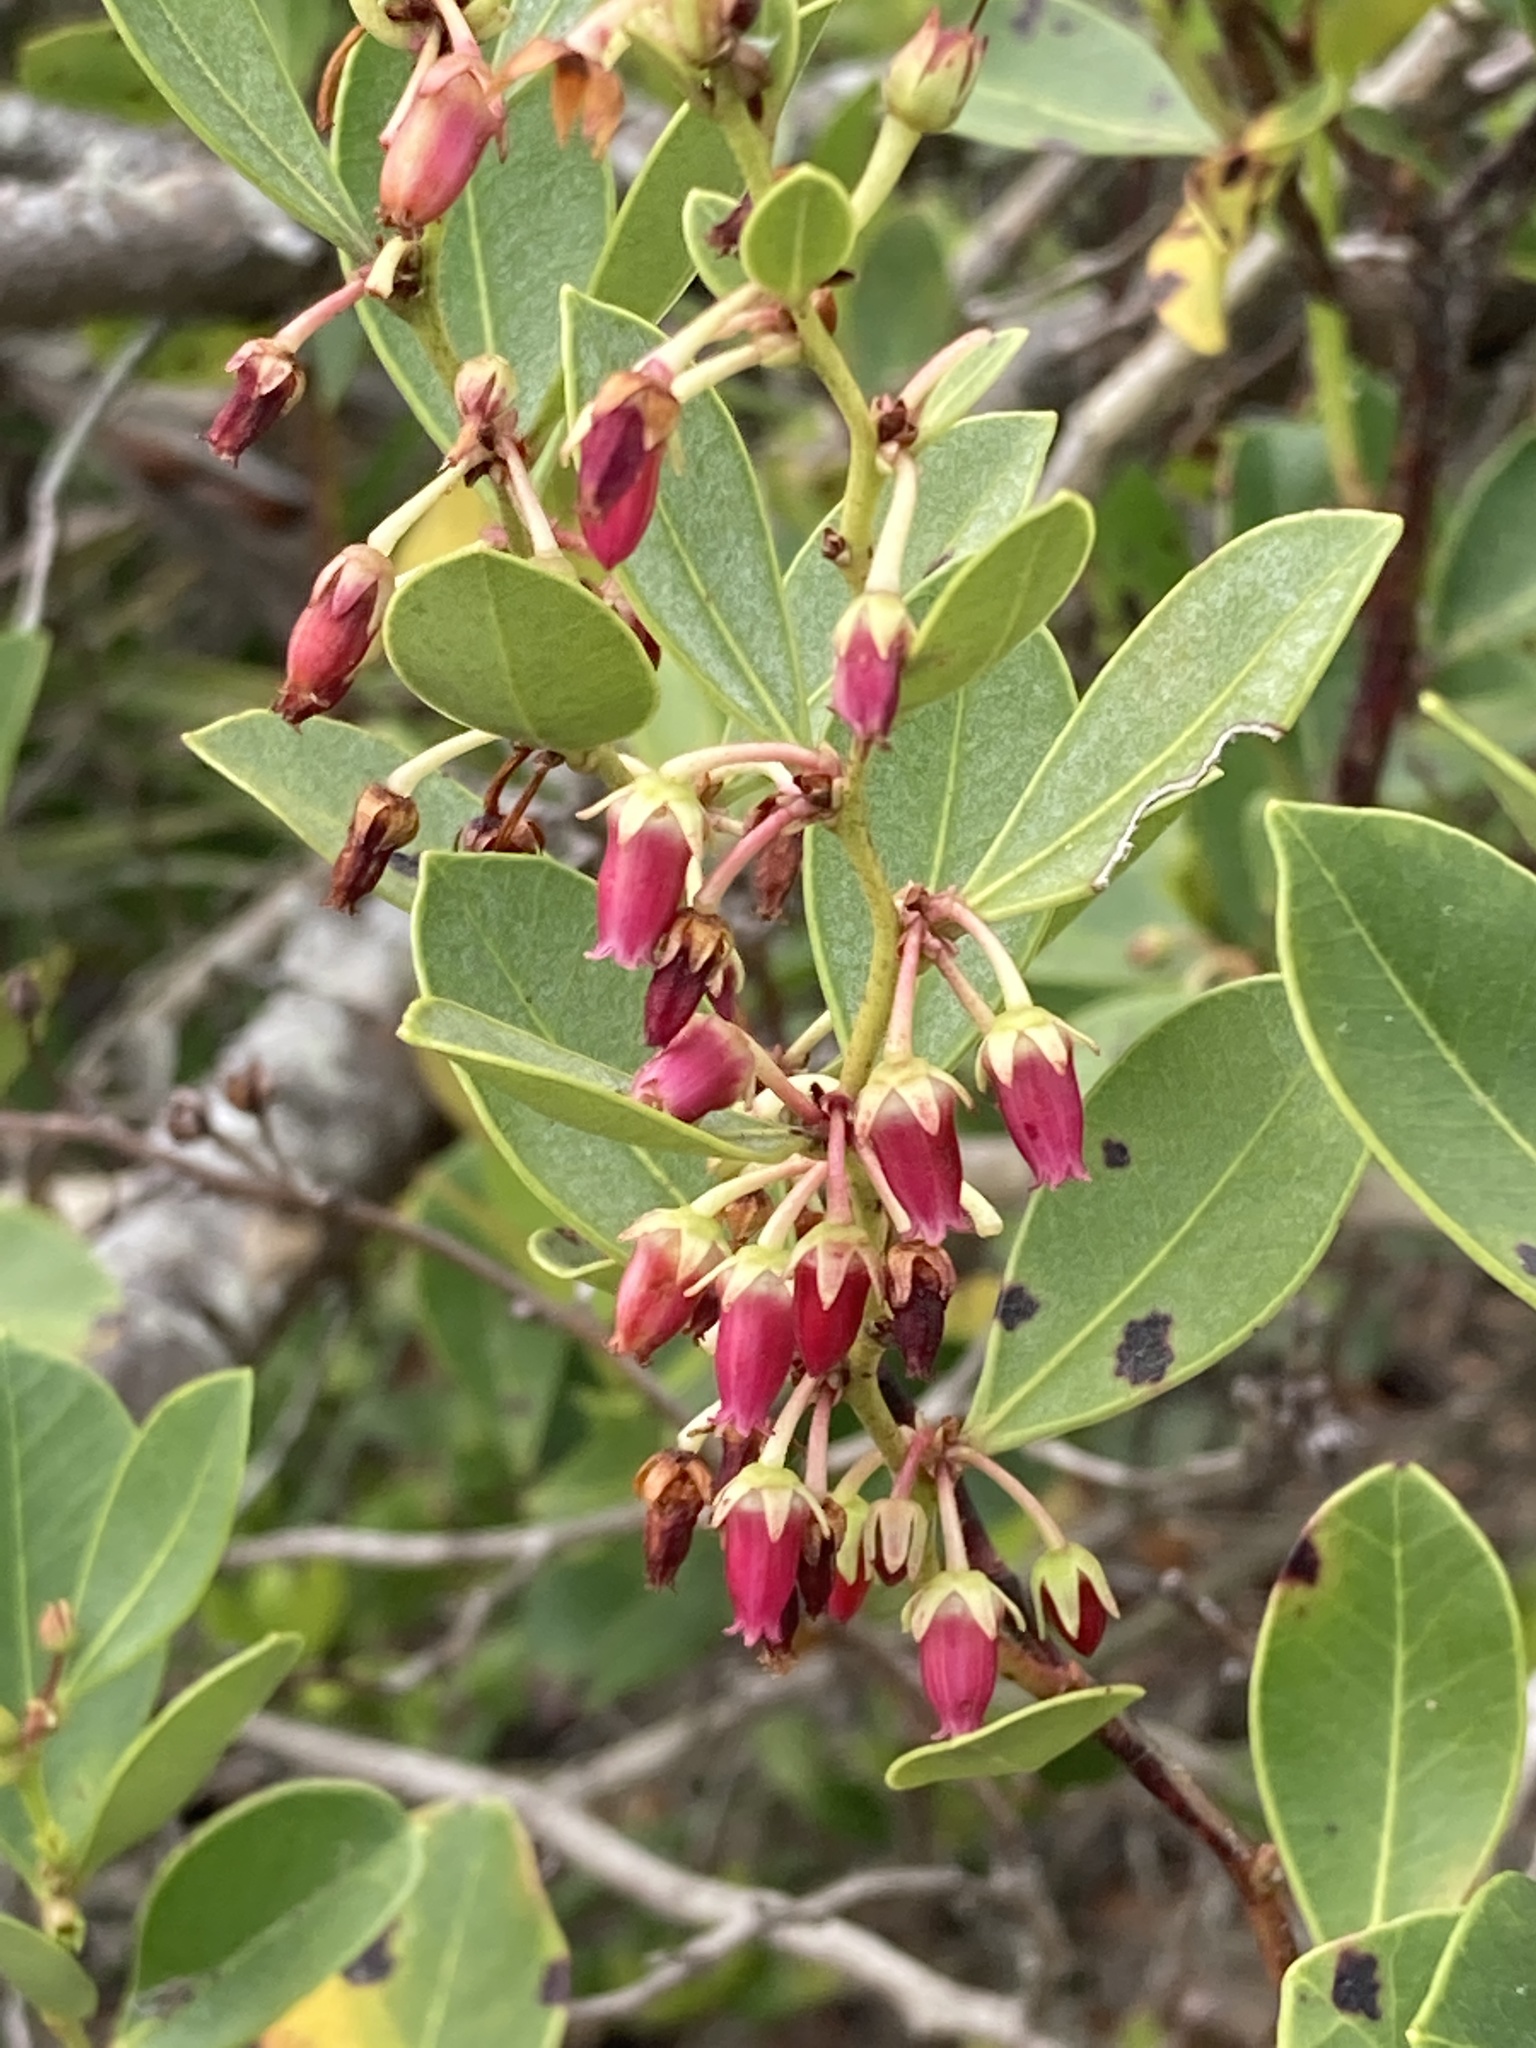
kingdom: Plantae
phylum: Tracheophyta
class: Magnoliopsida
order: Ericales
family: Ericaceae
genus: Lyonia
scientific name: Lyonia lucida
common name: Fetterbush
